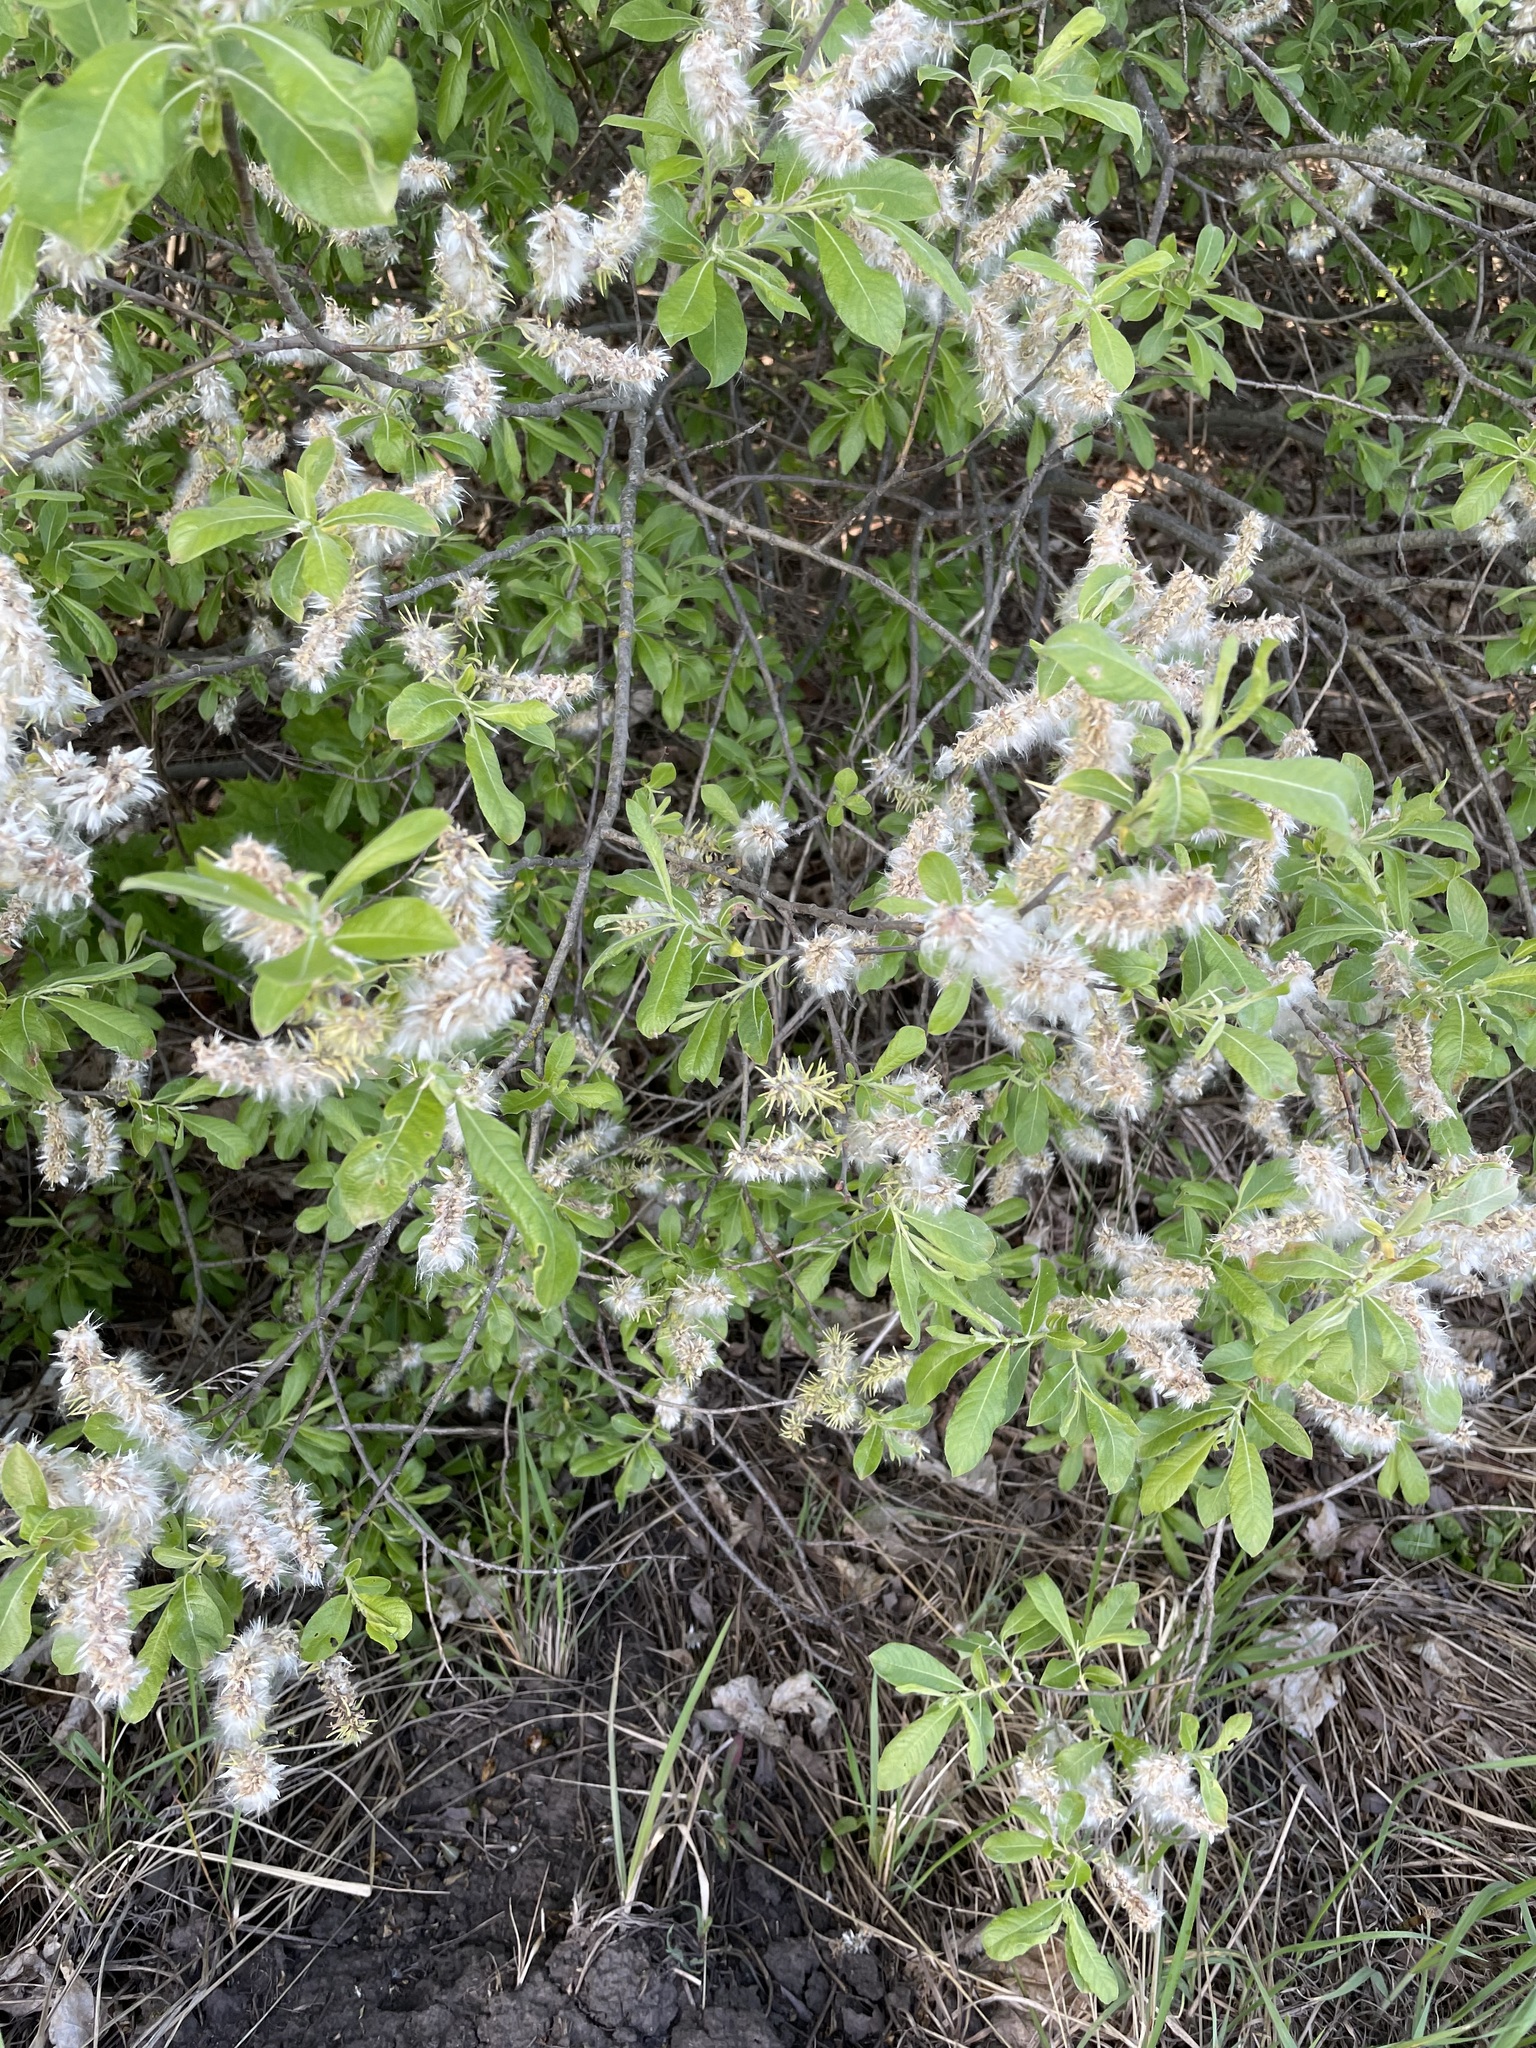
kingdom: Plantae
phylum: Tracheophyta
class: Magnoliopsida
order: Malpighiales
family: Salicaceae
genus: Salix
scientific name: Salix cinerea
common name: Common sallow
